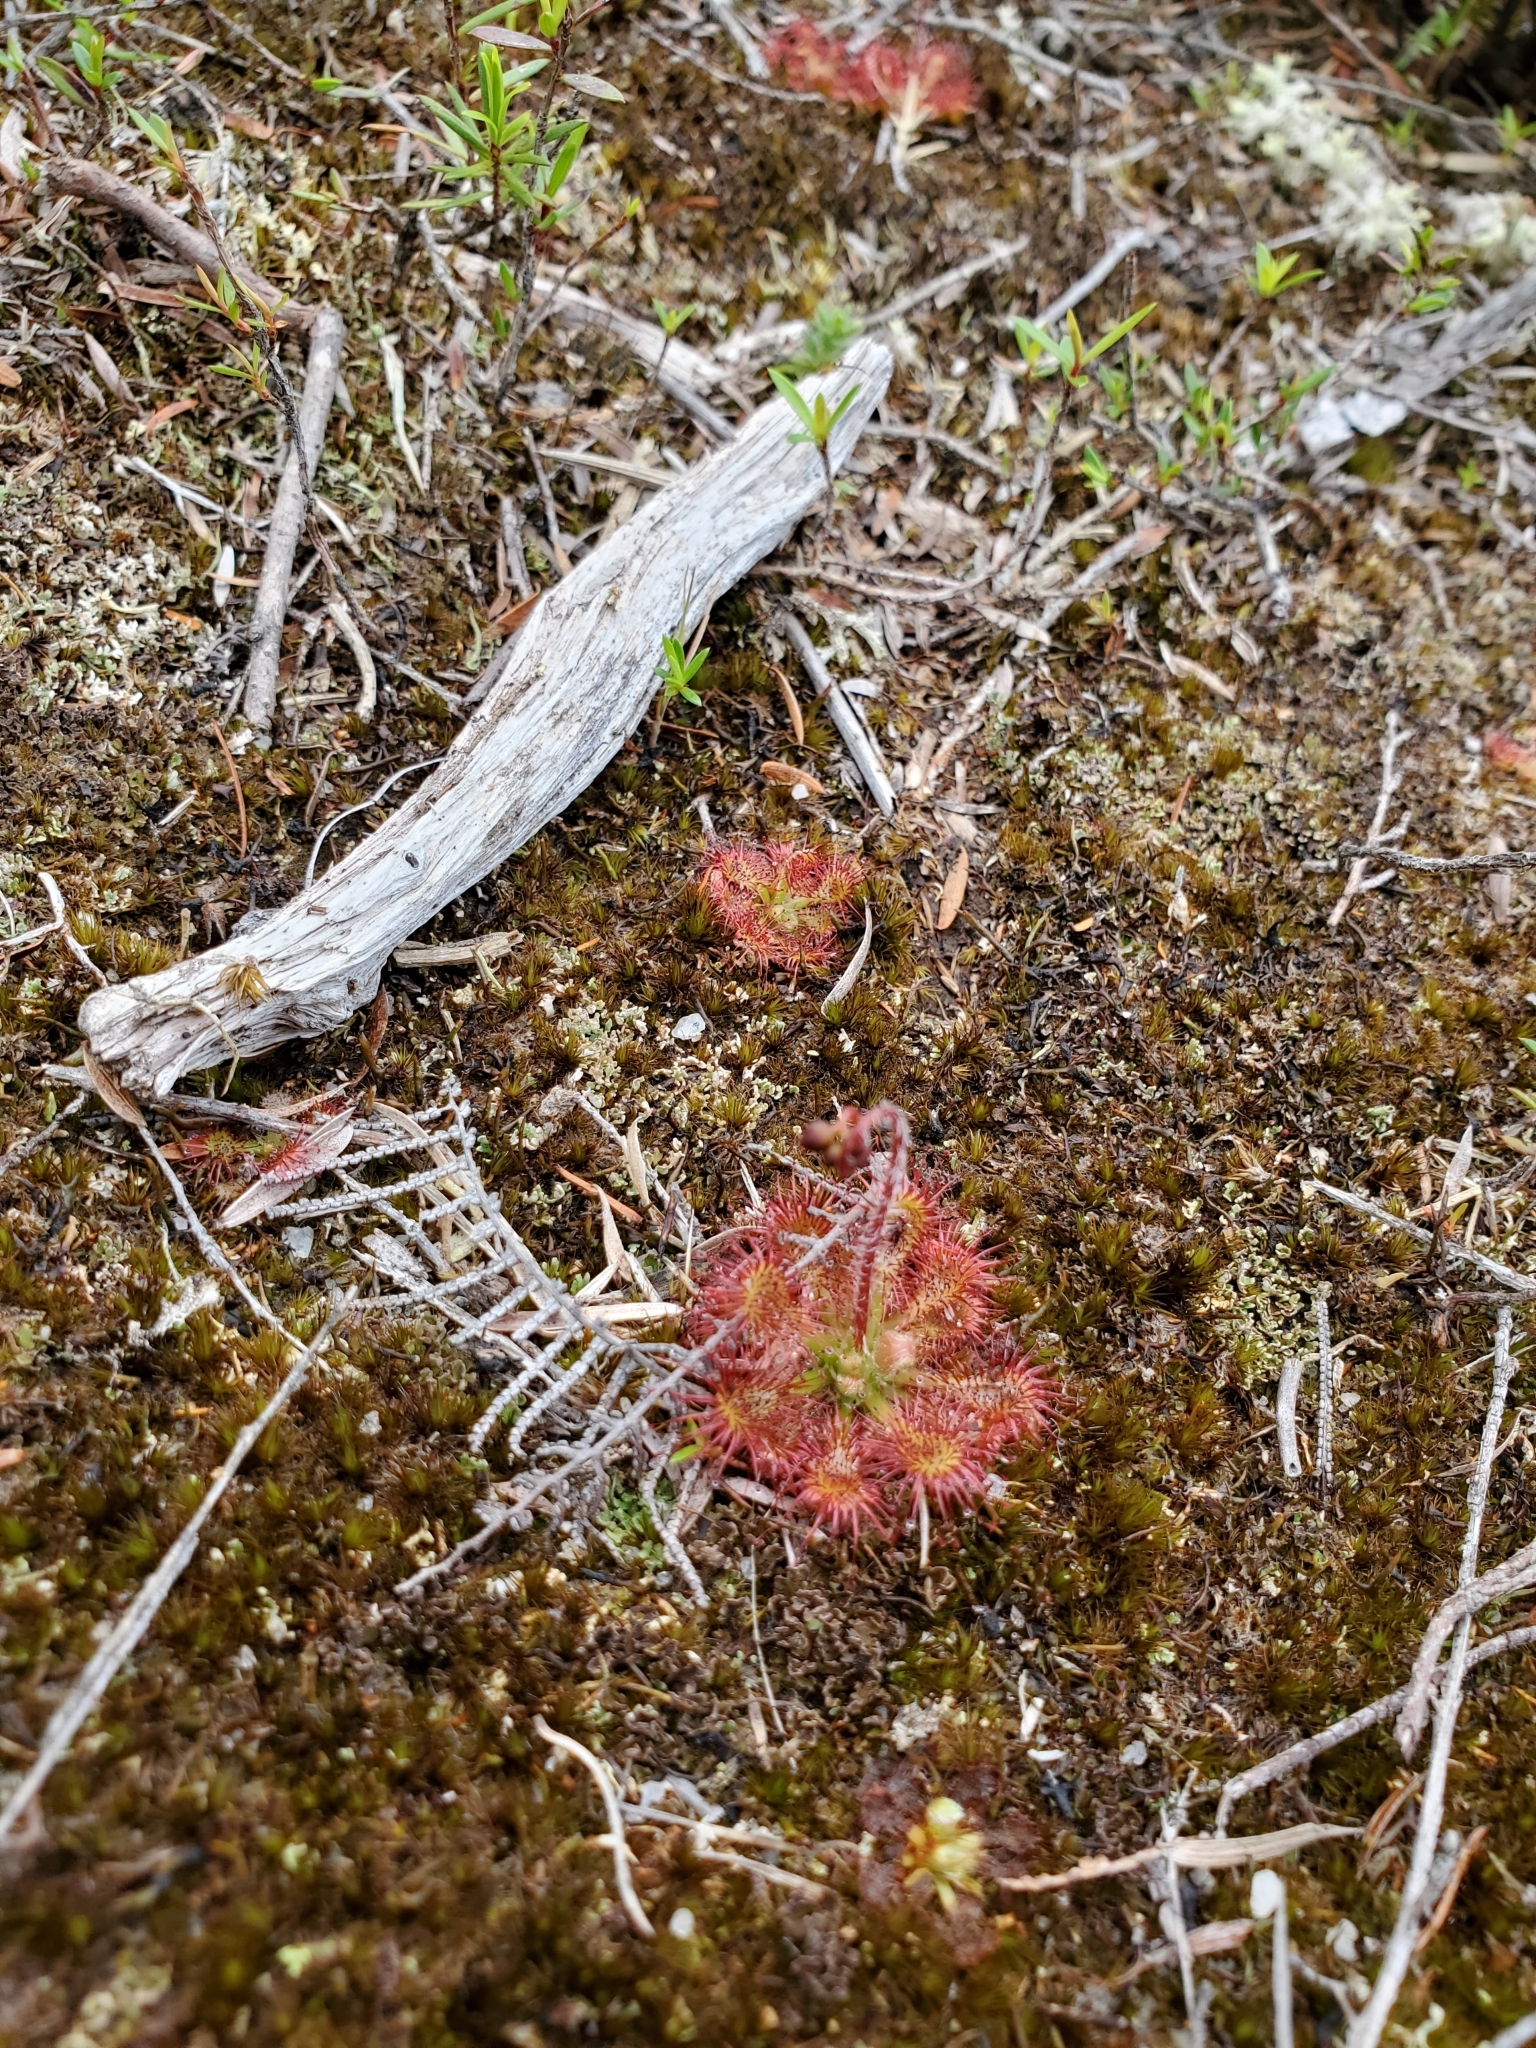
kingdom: Plantae
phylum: Tracheophyta
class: Magnoliopsida
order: Caryophyllales
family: Droseraceae
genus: Drosera
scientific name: Drosera spatulata
